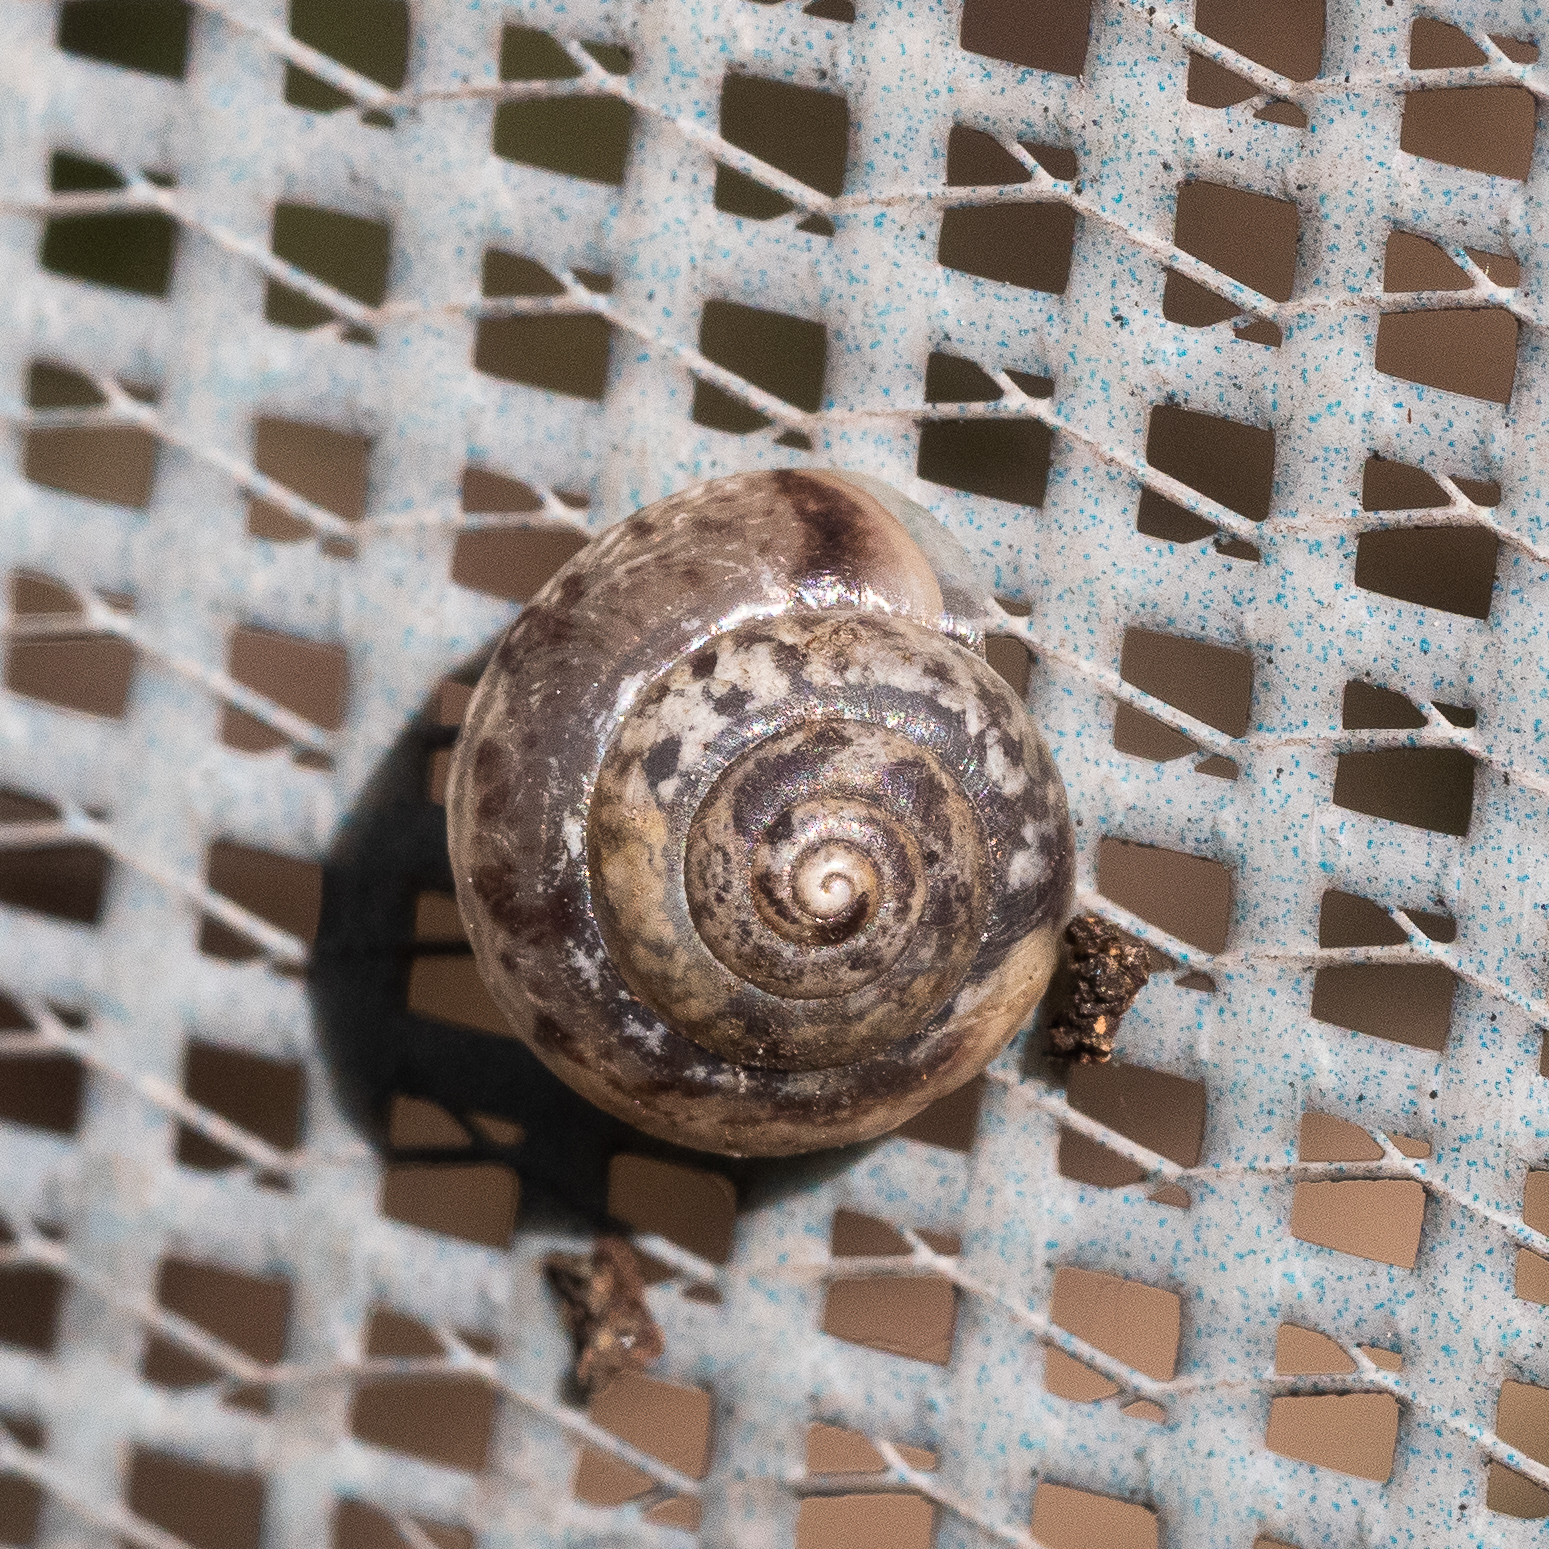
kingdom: Animalia
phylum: Mollusca
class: Gastropoda
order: Stylommatophora
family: Hygromiidae
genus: Hygromia
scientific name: Hygromia cinctella
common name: Girdled snail
